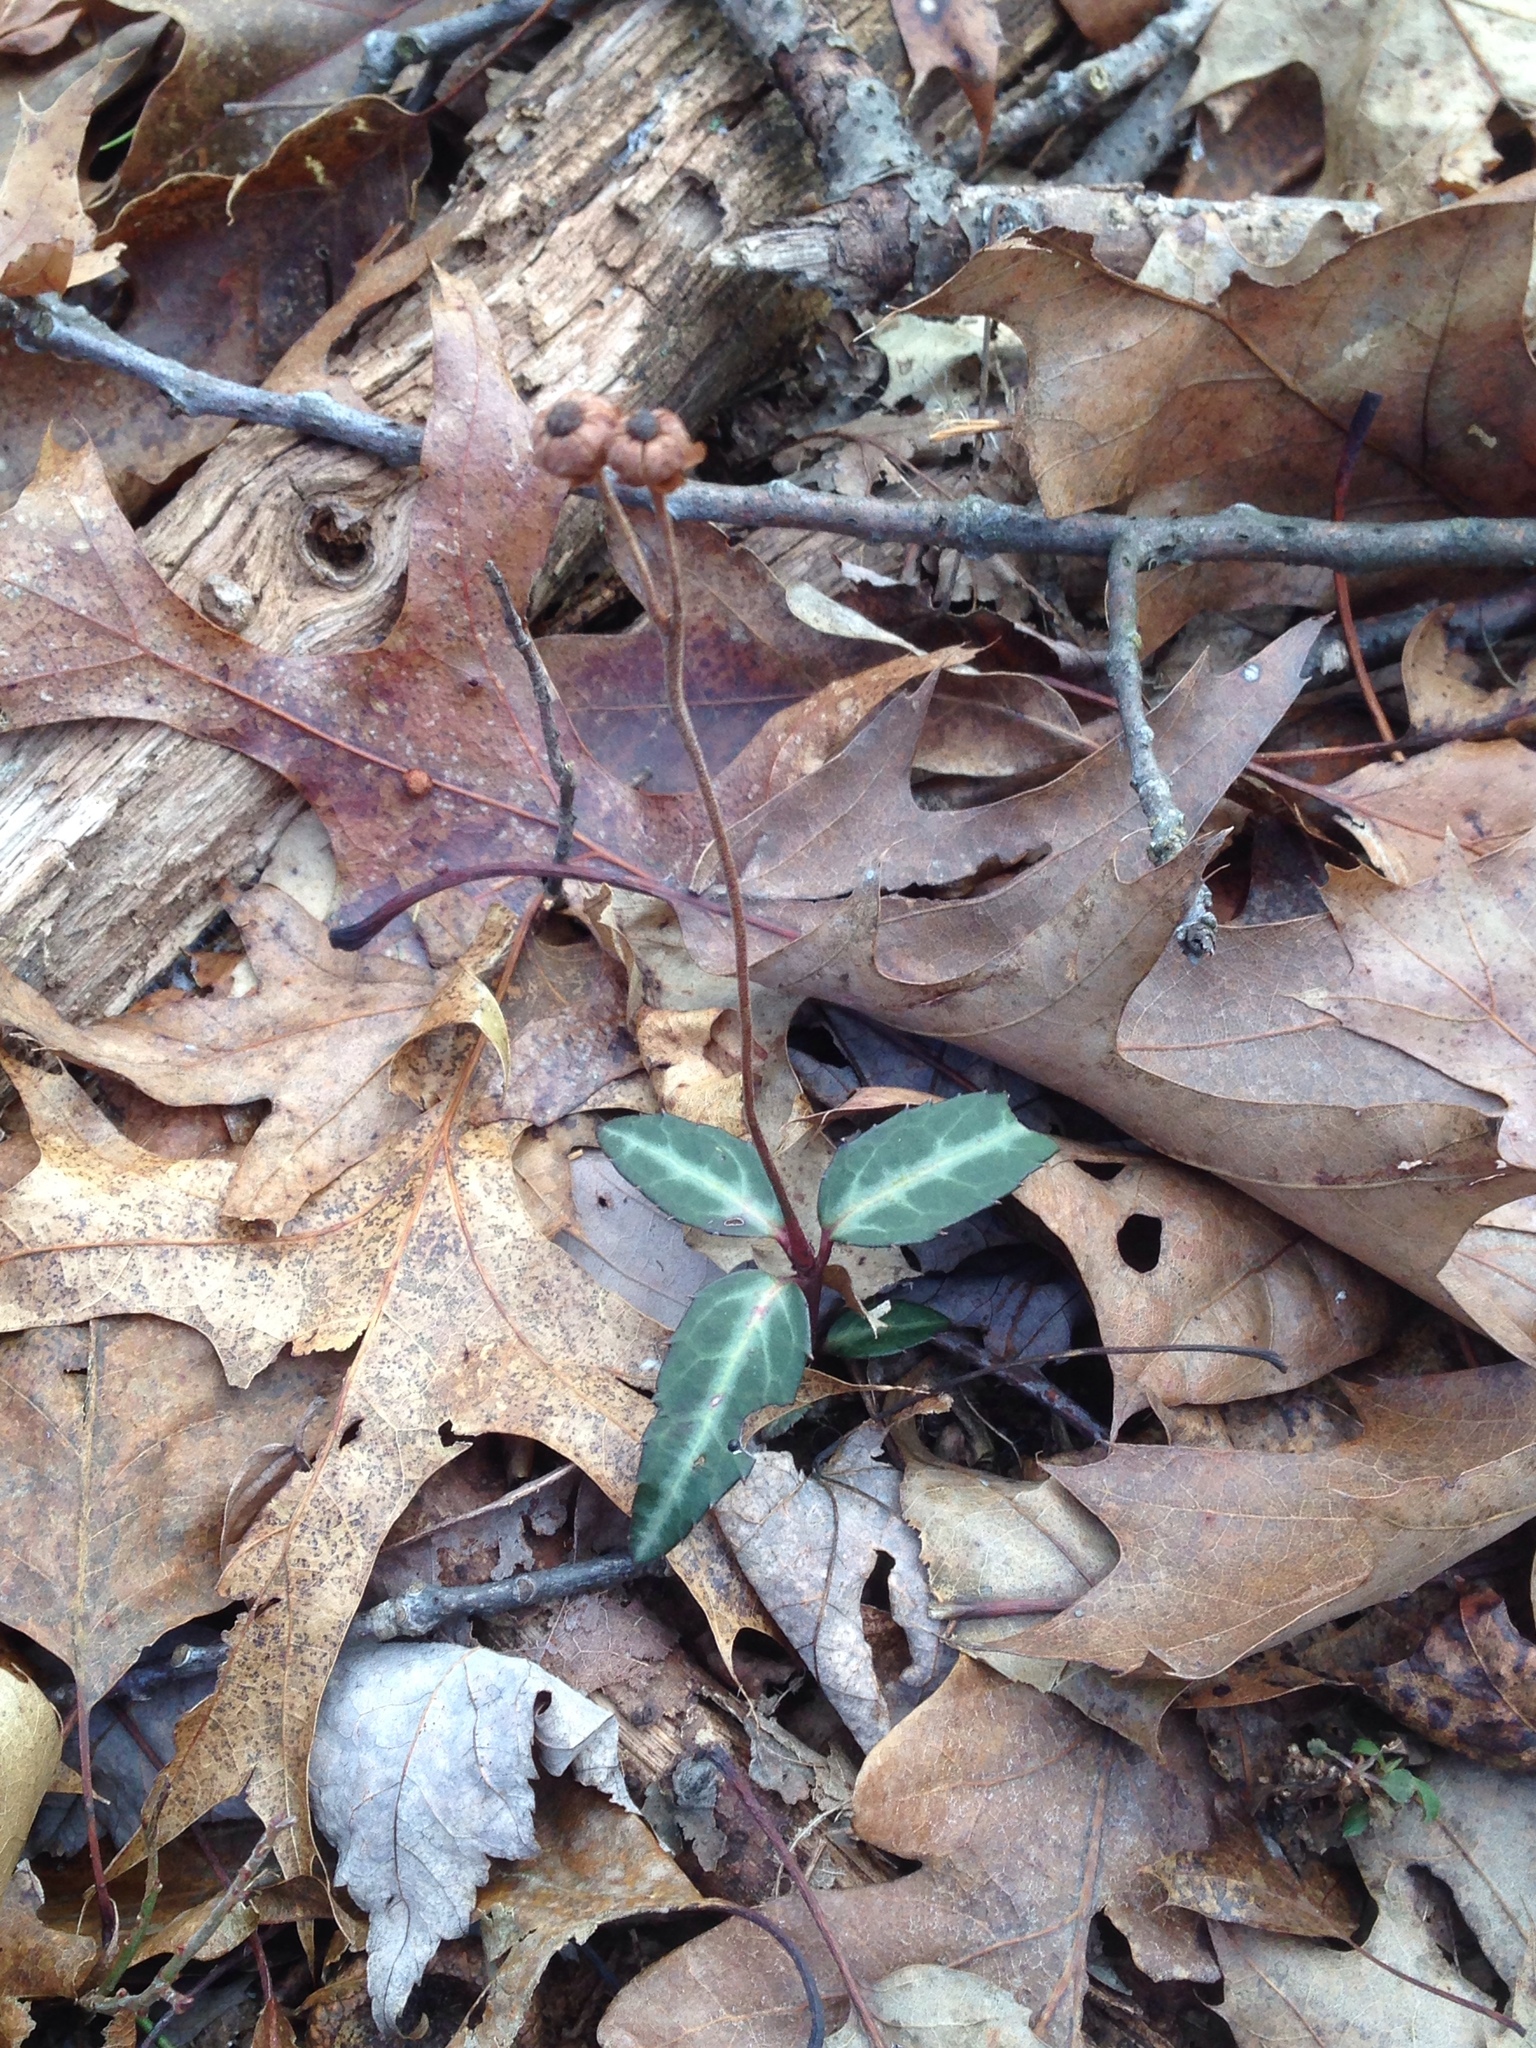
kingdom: Plantae
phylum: Tracheophyta
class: Magnoliopsida
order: Ericales
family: Ericaceae
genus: Chimaphila
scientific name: Chimaphila maculata
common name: Spotted pipsissewa
